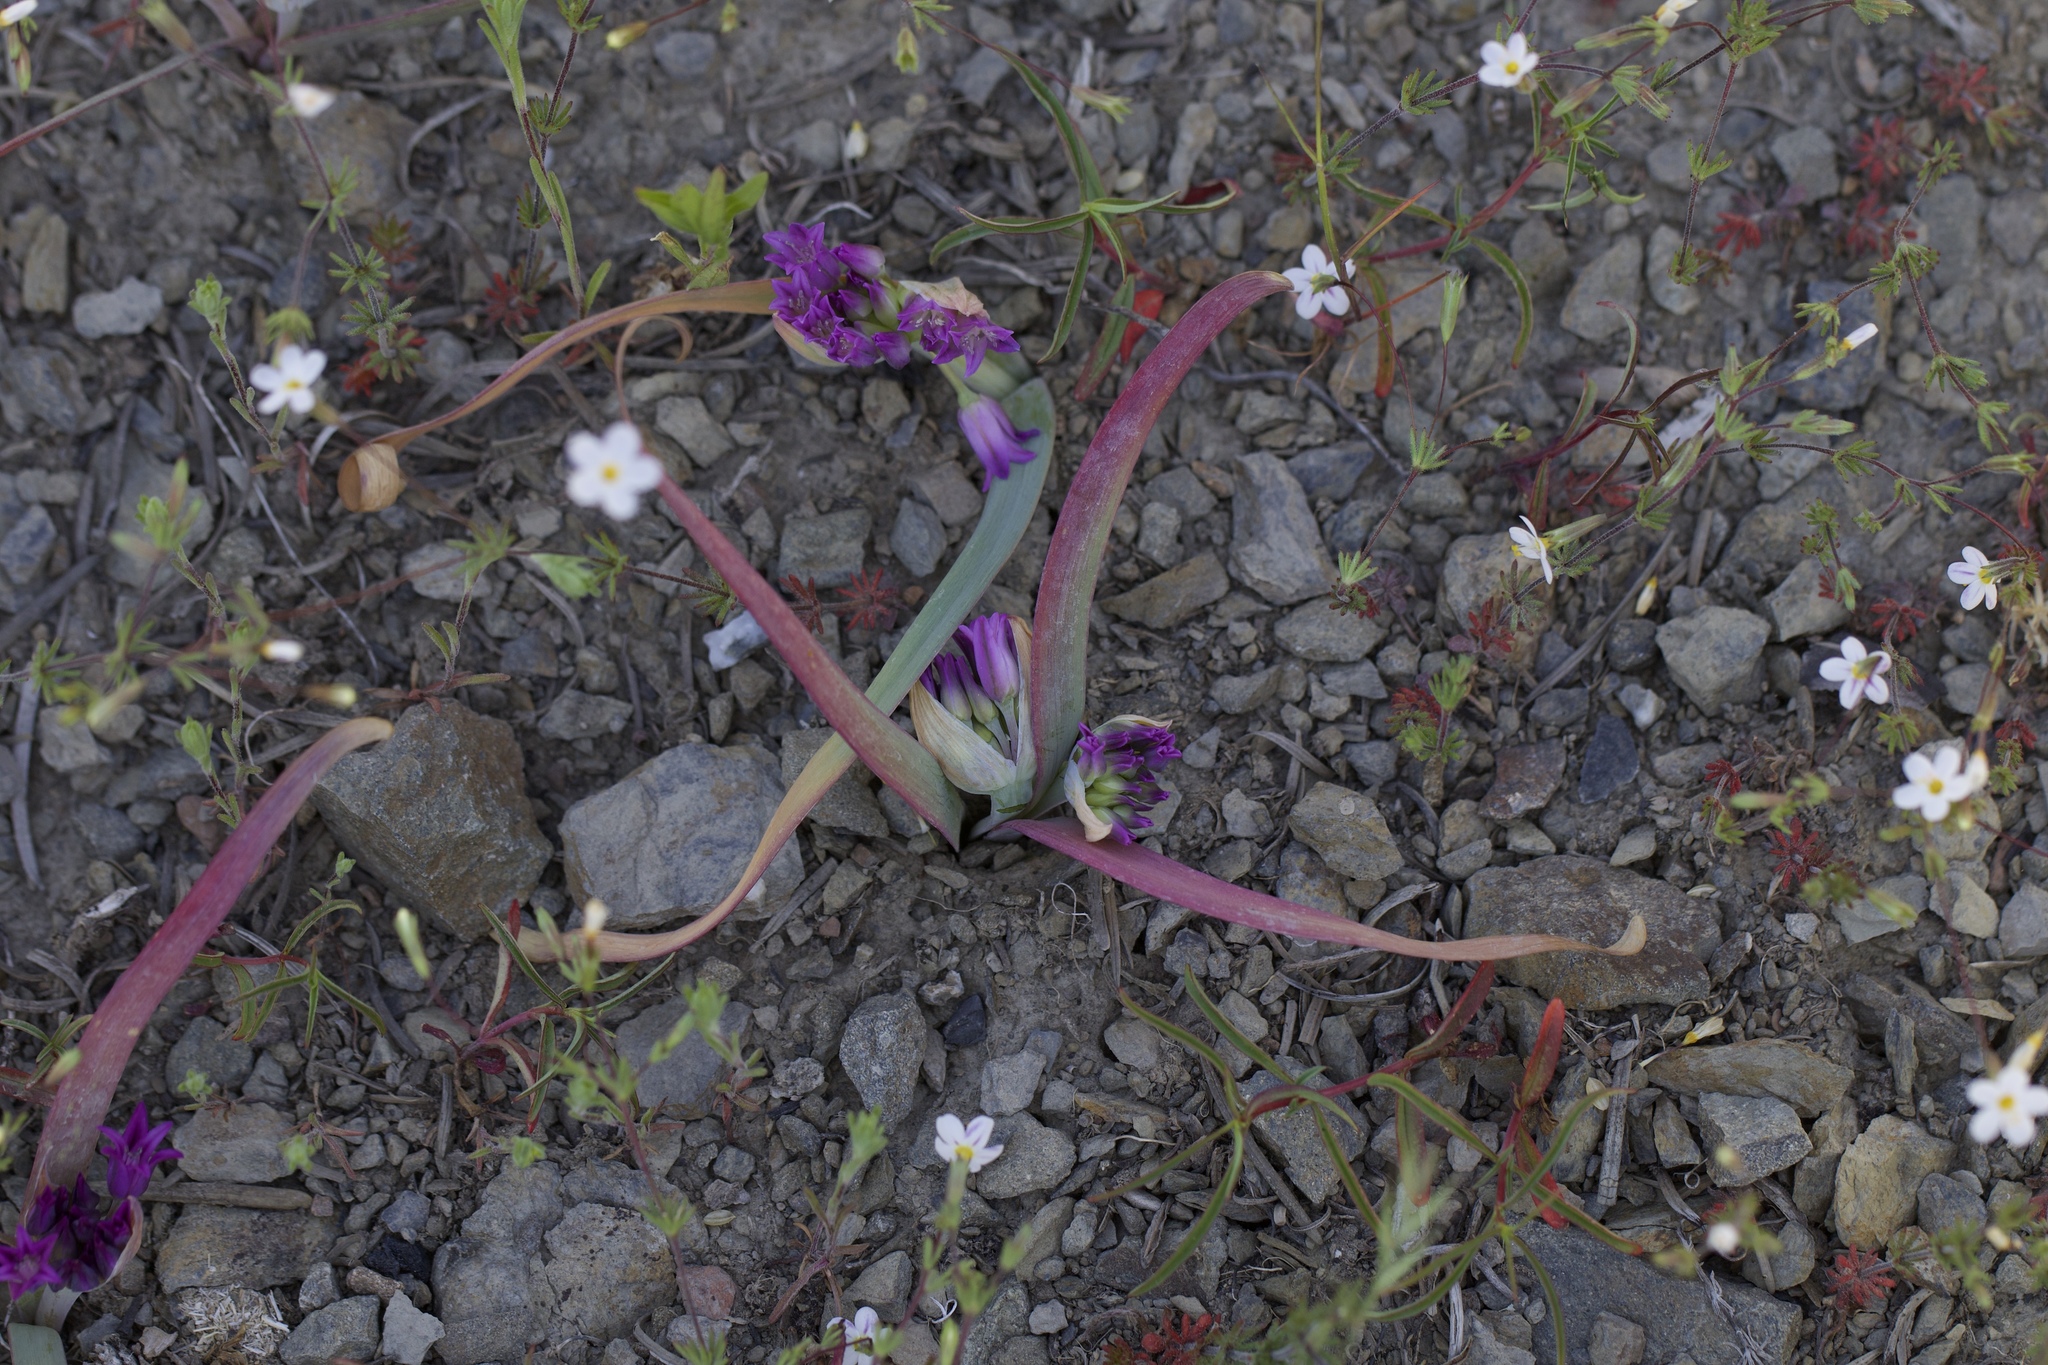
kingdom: Plantae
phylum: Tracheophyta
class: Liliopsida
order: Asparagales
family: Amaryllidaceae
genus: Allium
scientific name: Allium falcifolium
